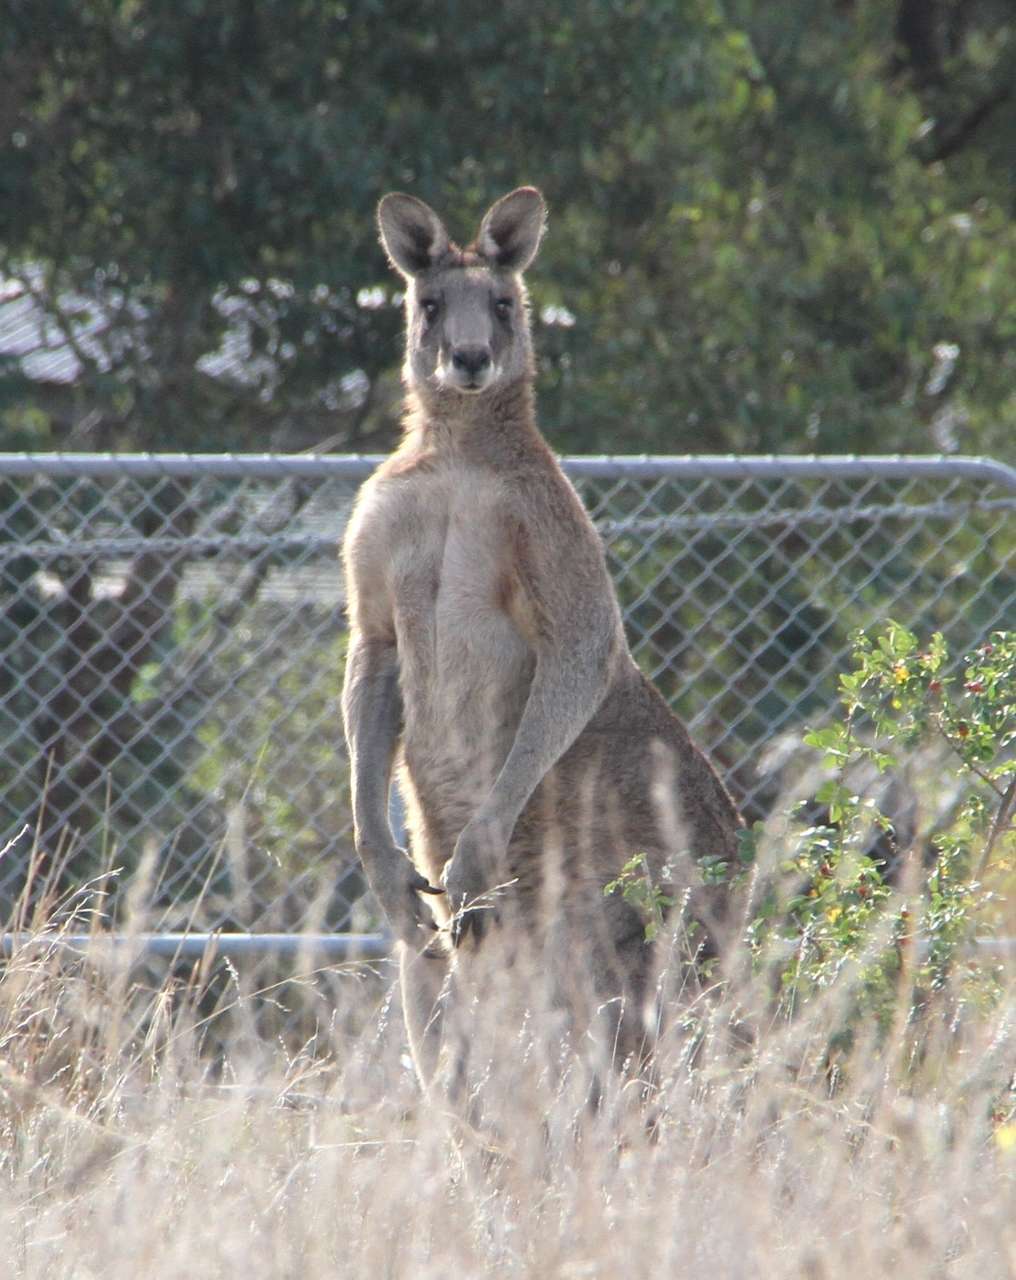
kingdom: Animalia
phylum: Chordata
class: Mammalia
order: Diprotodontia
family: Macropodidae
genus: Macropus
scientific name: Macropus giganteus
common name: Eastern grey kangaroo
